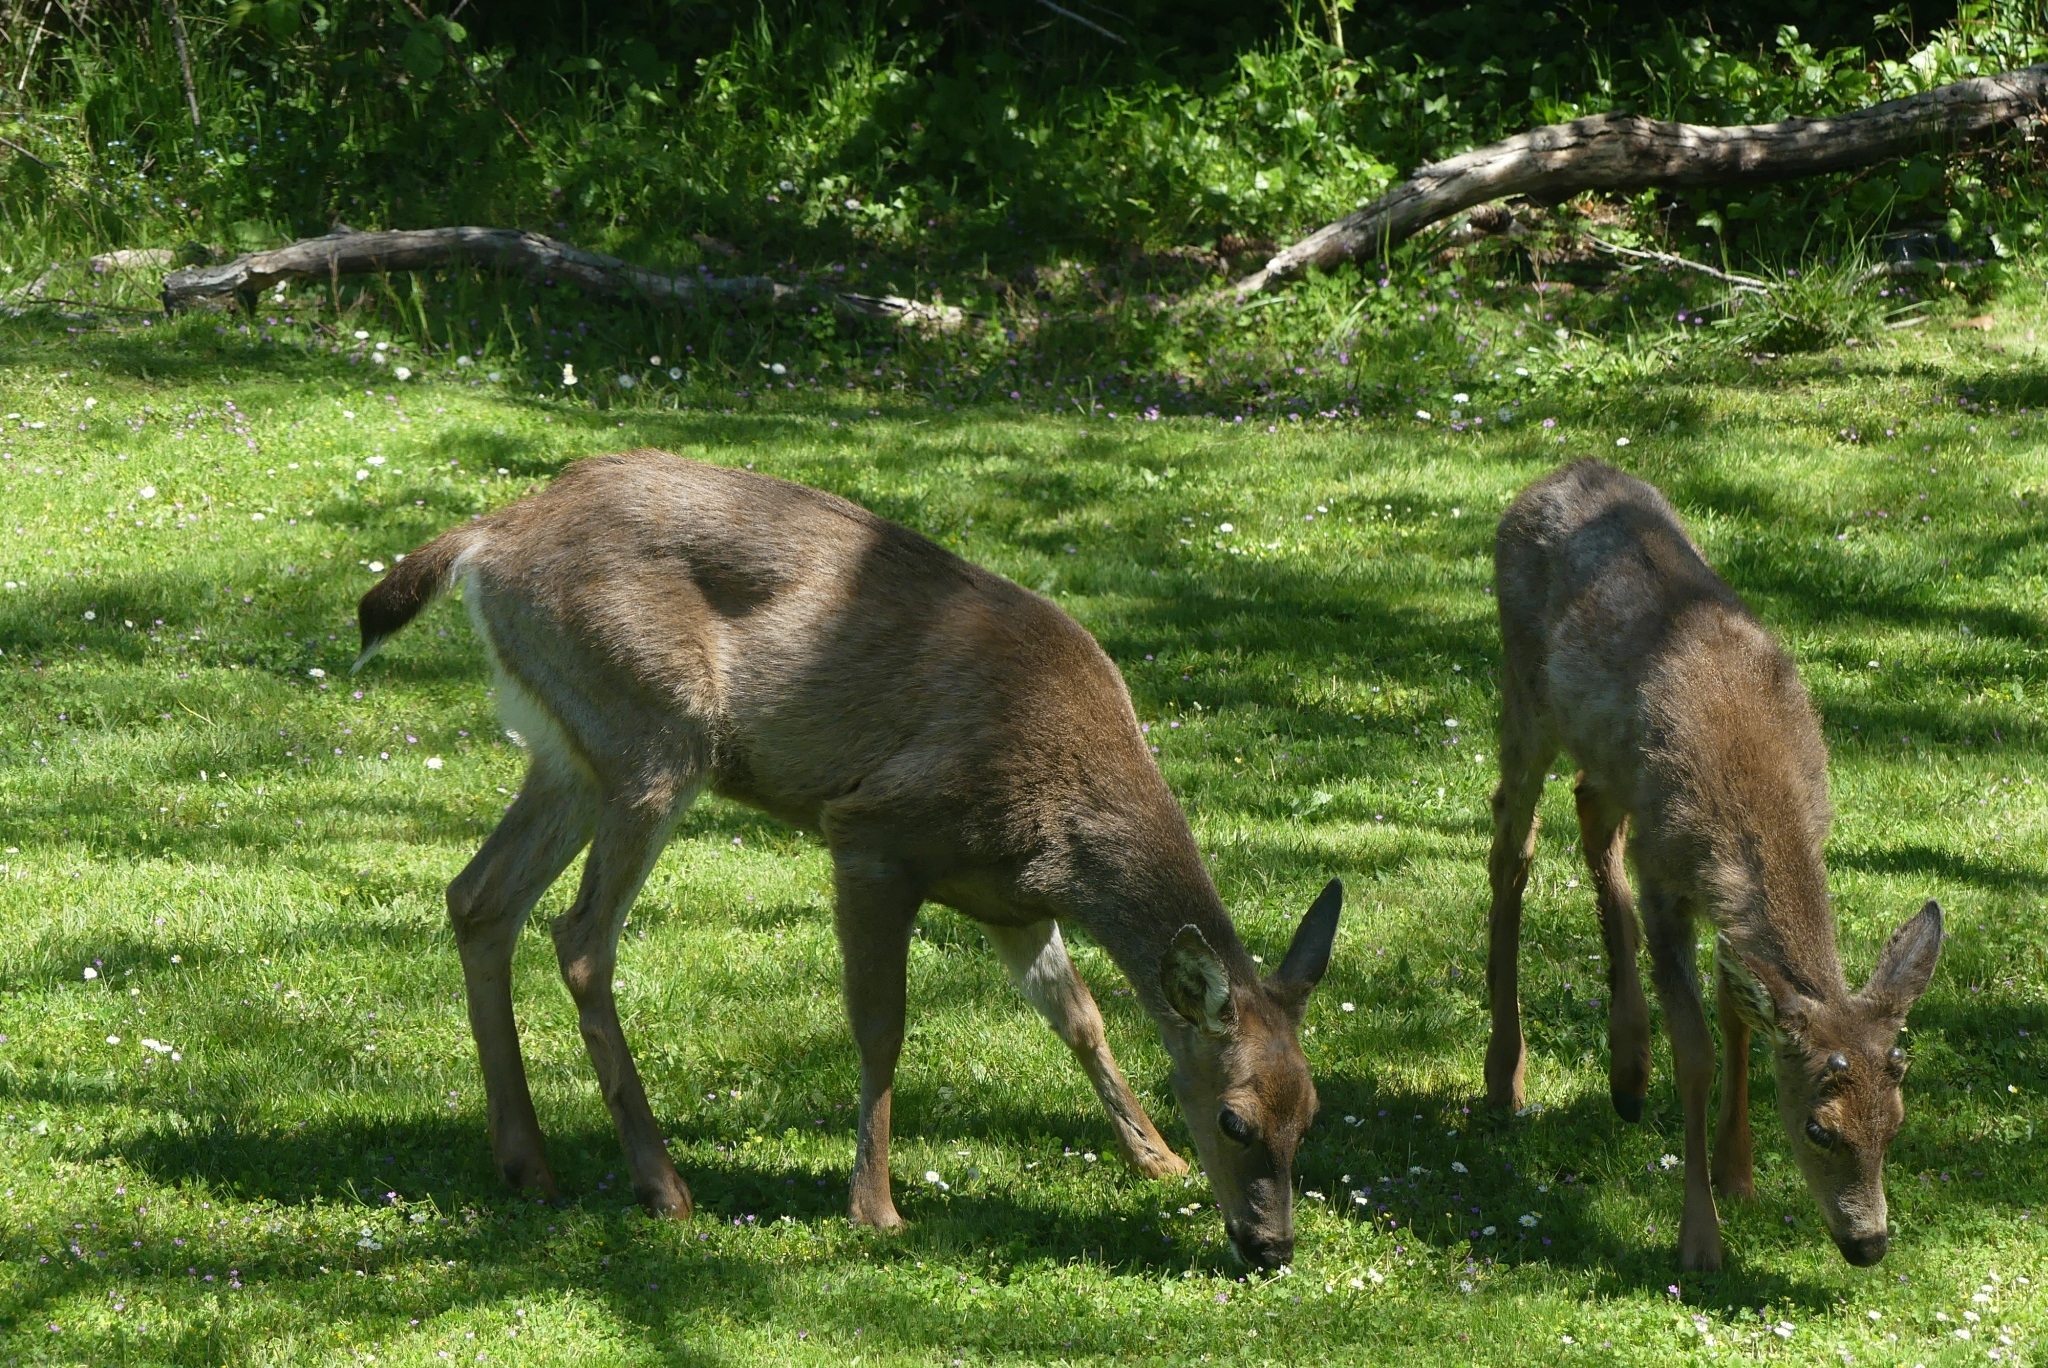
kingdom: Animalia
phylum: Chordata
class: Mammalia
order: Artiodactyla
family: Cervidae
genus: Odocoileus
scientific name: Odocoileus hemionus
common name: Mule deer
